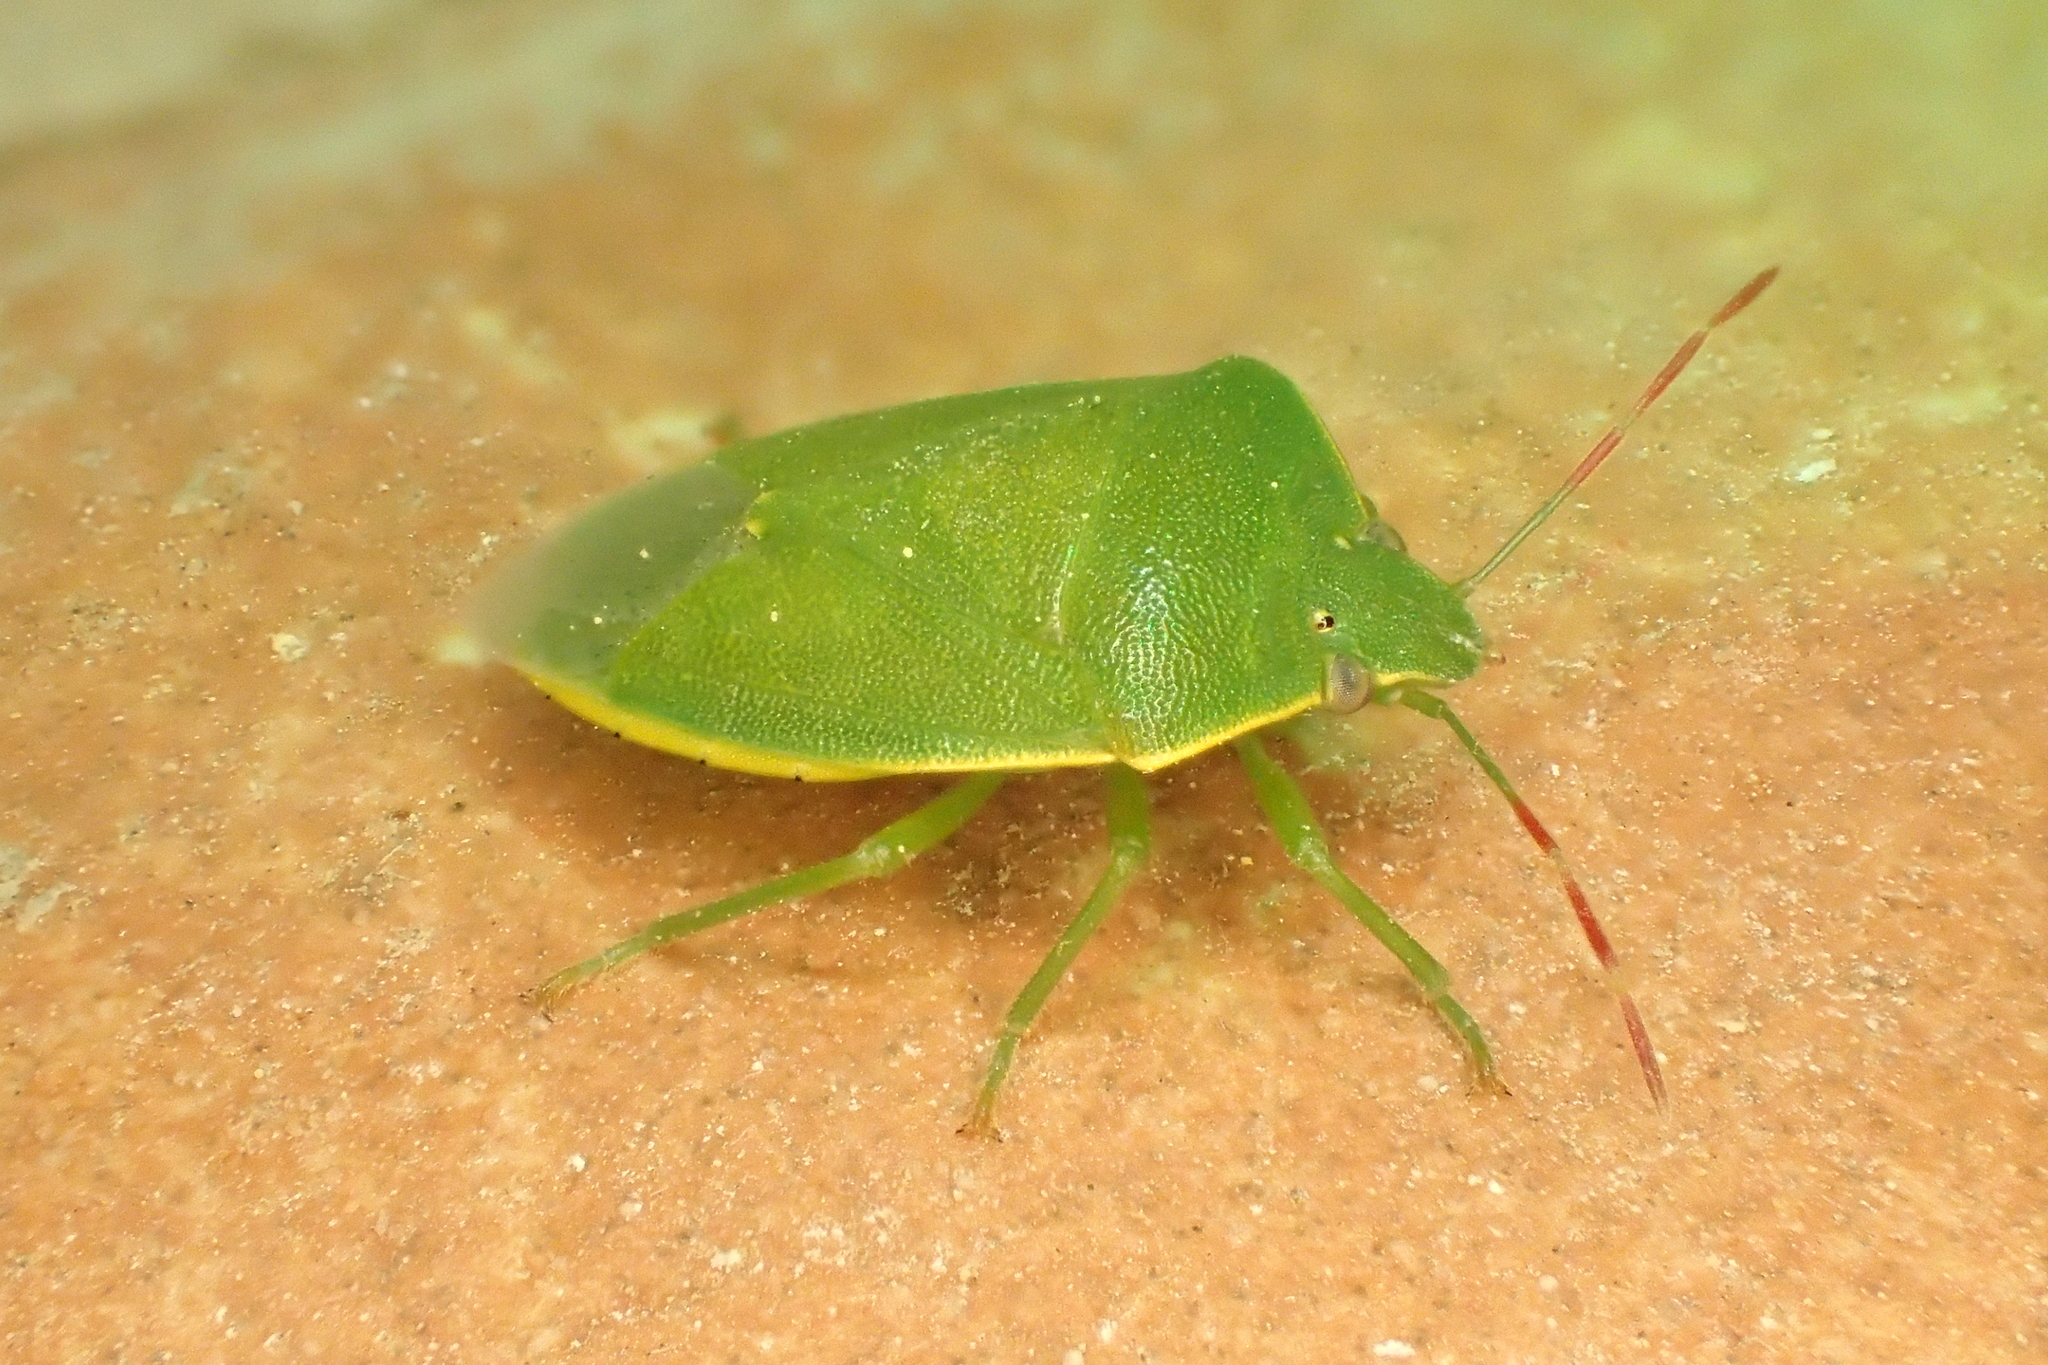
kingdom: Animalia
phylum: Arthropoda
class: Insecta
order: Hemiptera
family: Pentatomidae
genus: Acrosternum
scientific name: Acrosternum heegeri
